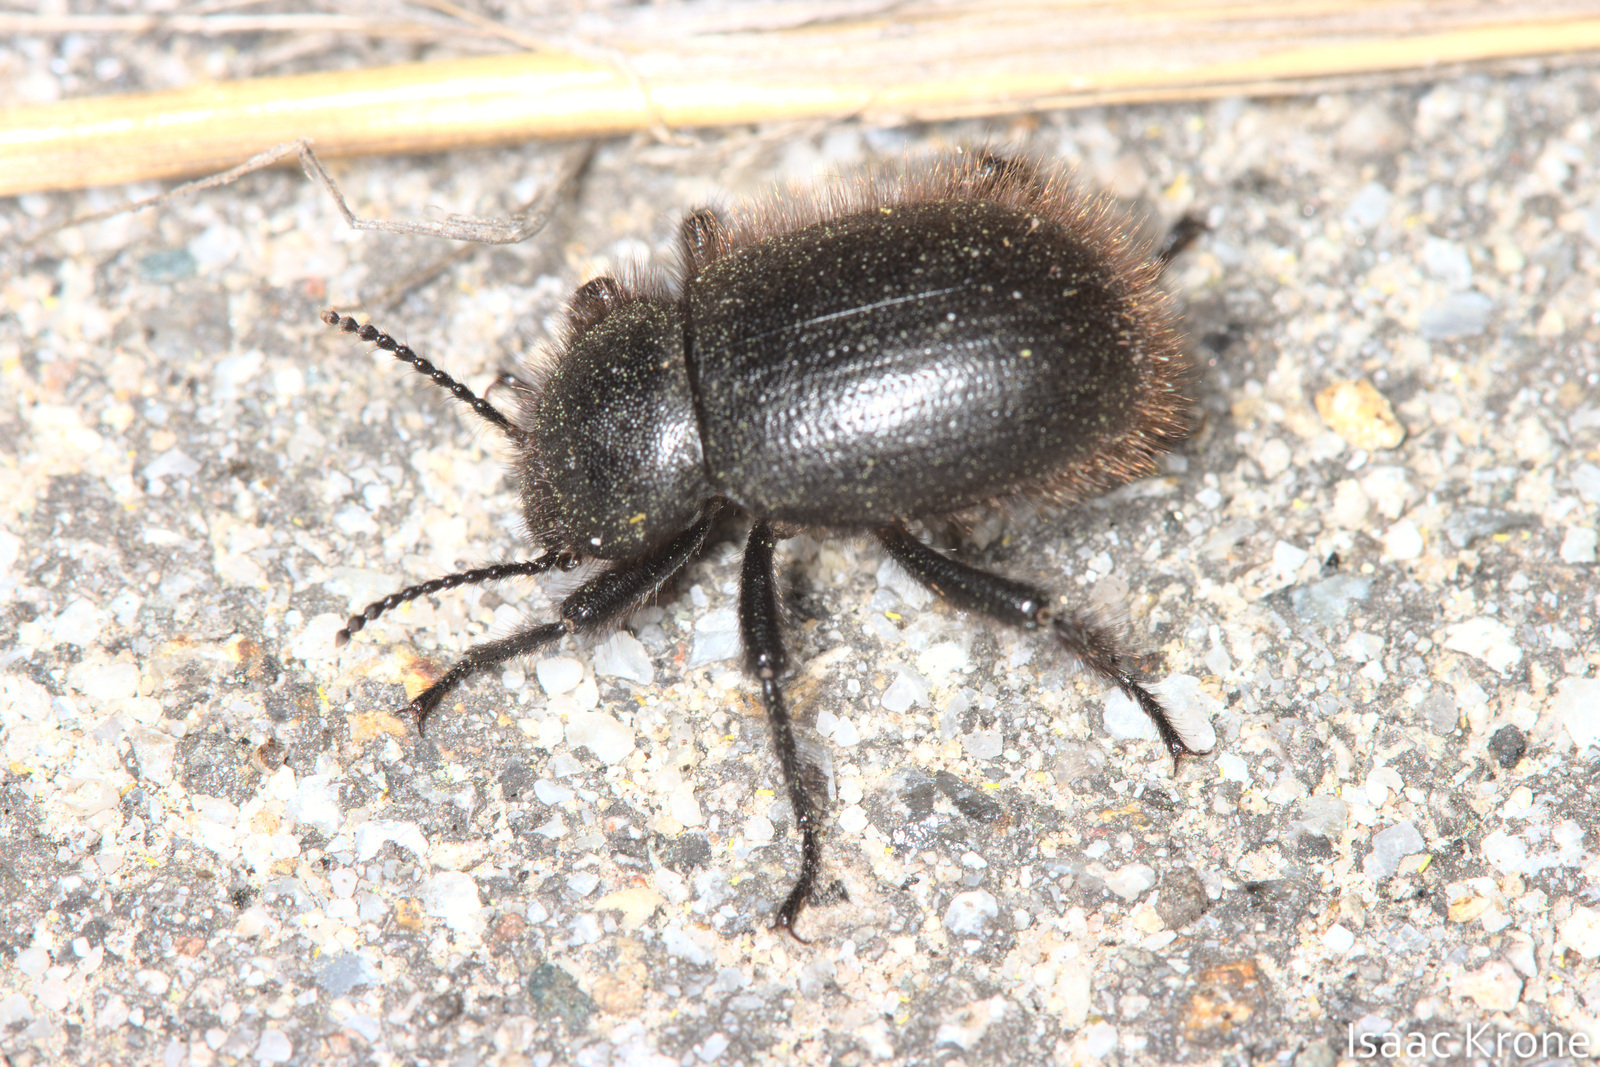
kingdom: Animalia
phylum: Arthropoda
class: Insecta
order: Coleoptera
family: Tenebrionidae
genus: Eleodes
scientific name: Eleodes osculans
